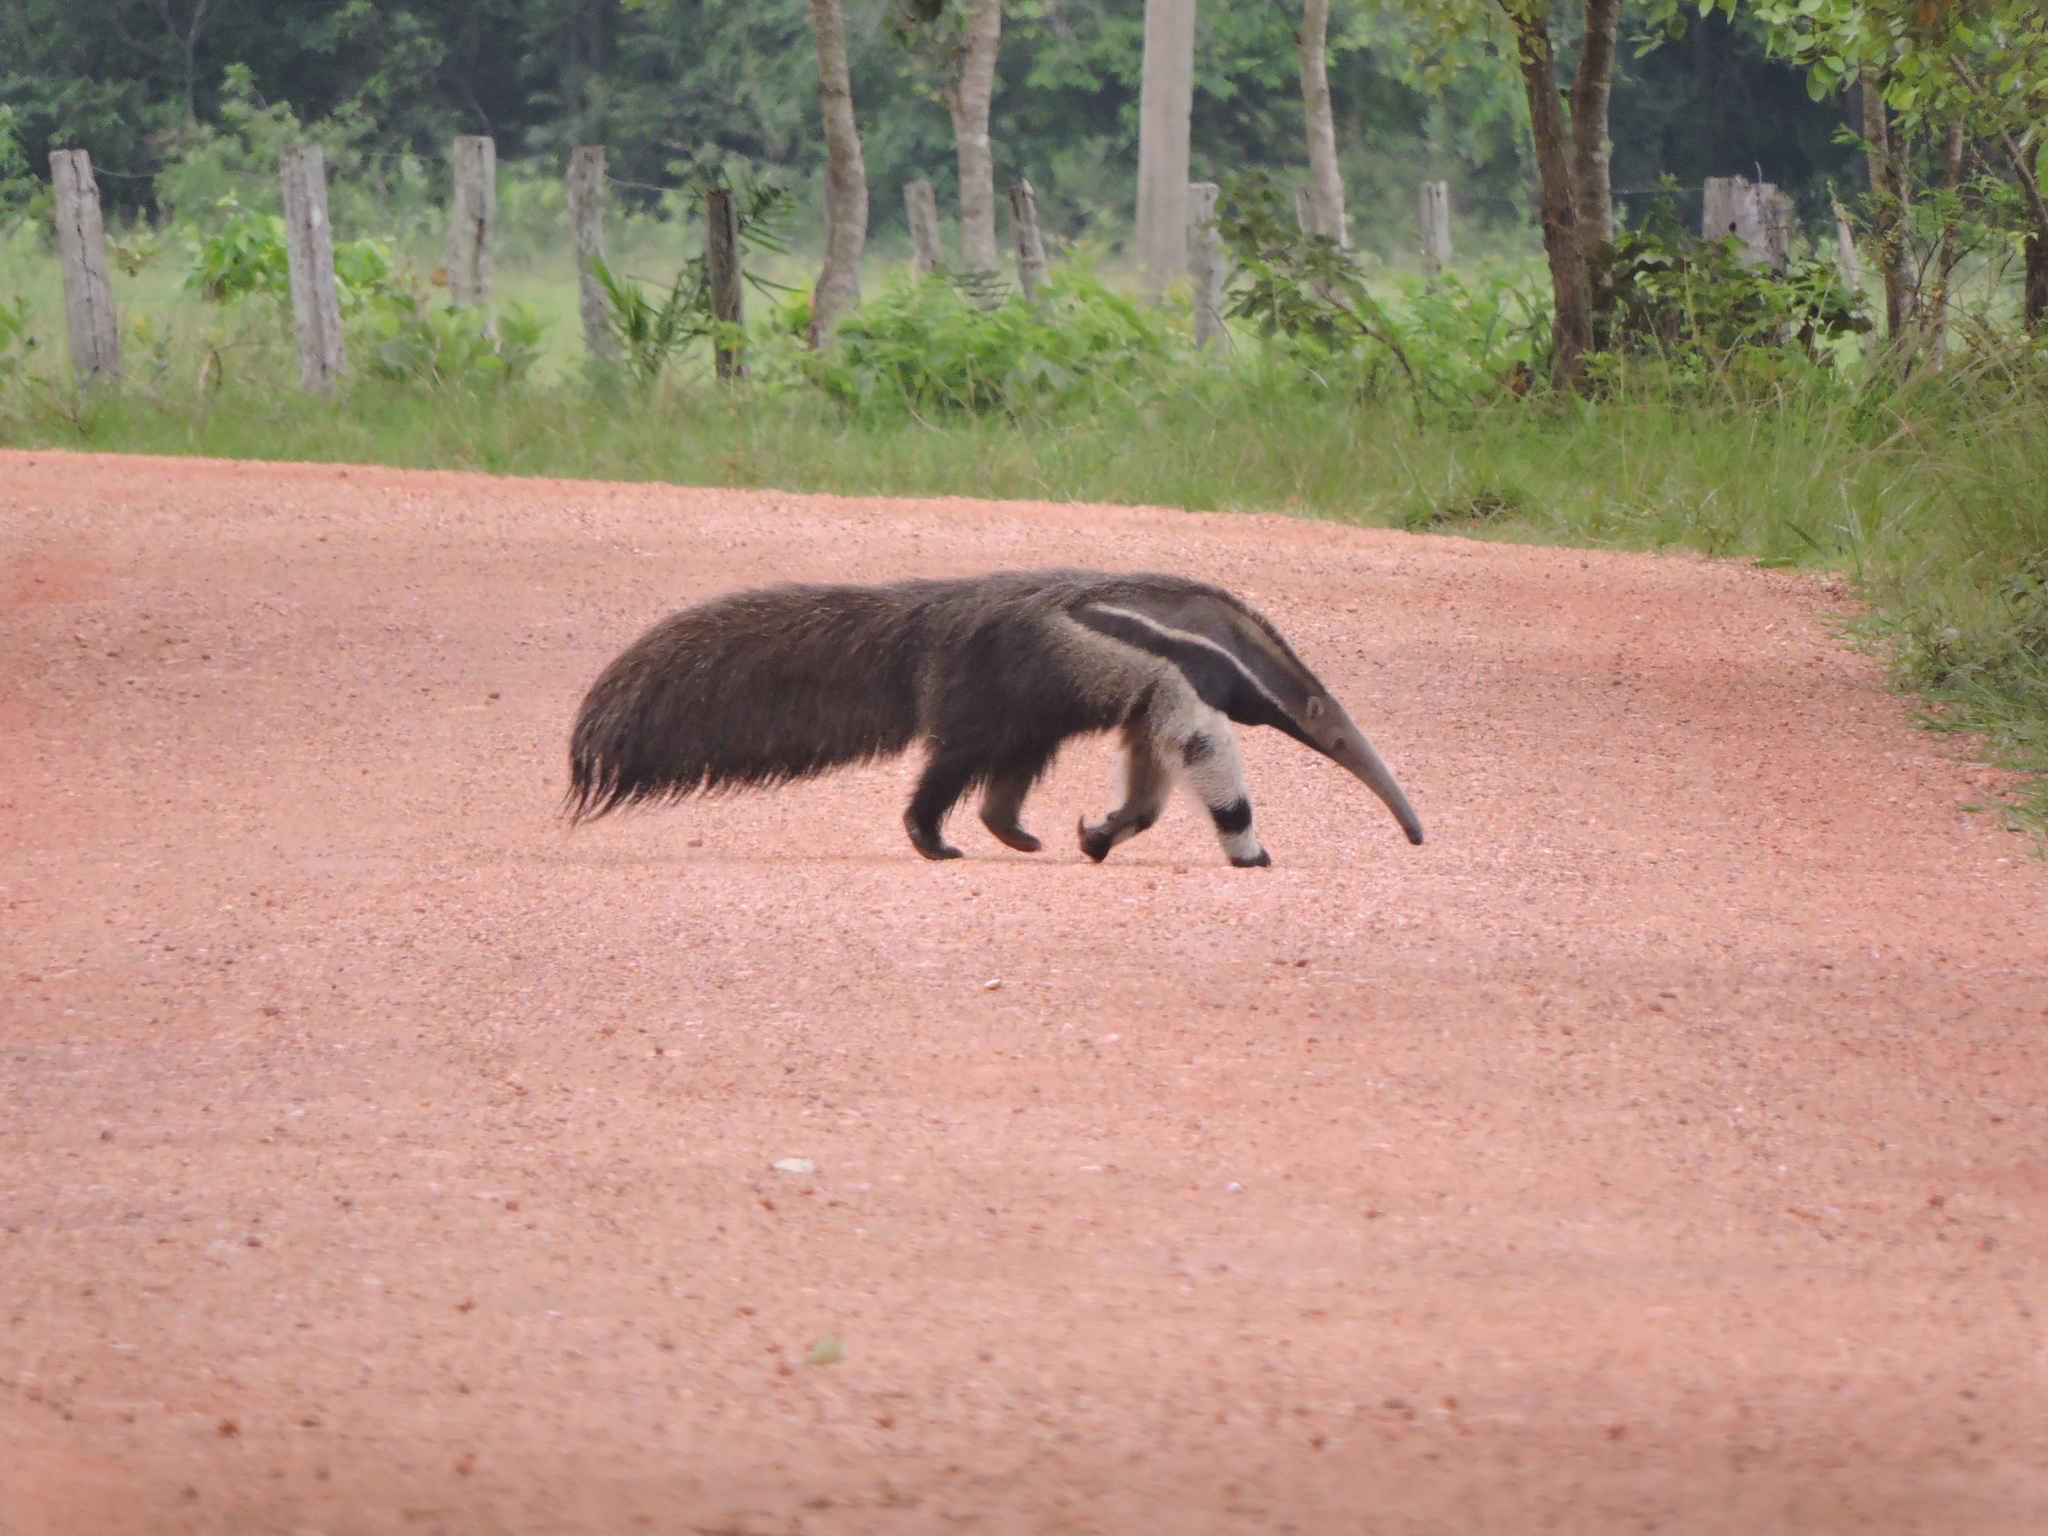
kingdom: Animalia
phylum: Chordata
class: Mammalia
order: Pilosa
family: Myrmecophagidae
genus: Myrmecophaga
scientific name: Myrmecophaga tridactyla
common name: Giant anteater
